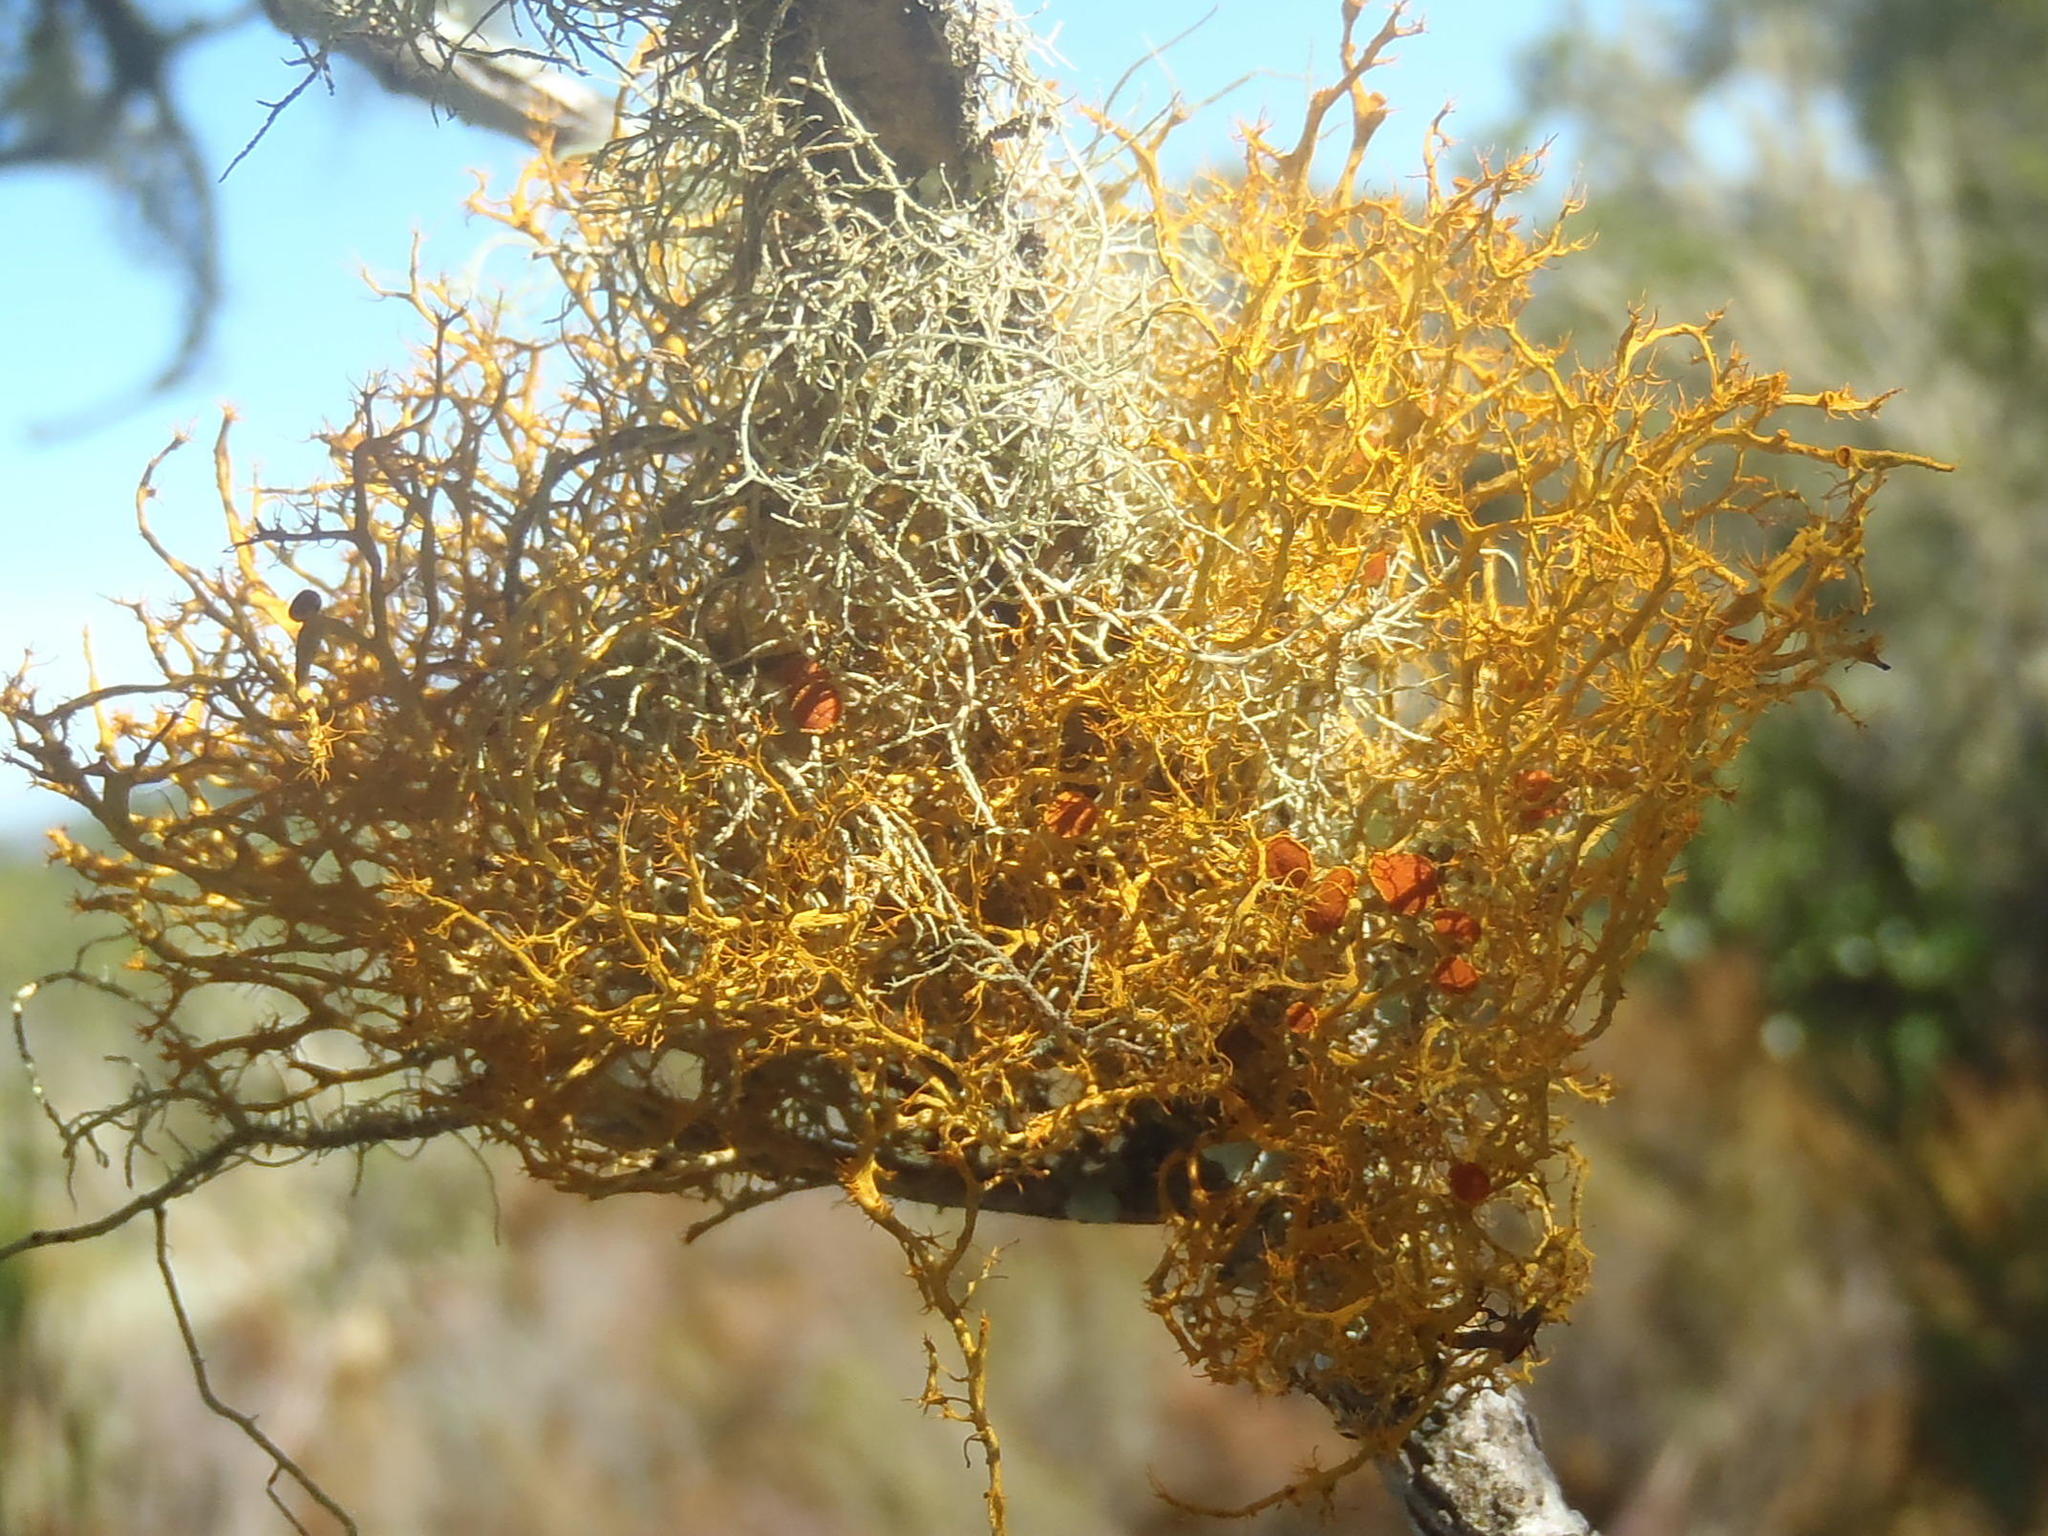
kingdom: Fungi
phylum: Ascomycota
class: Lecanoromycetes
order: Teloschistales
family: Teloschistaceae
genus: Teloschistes
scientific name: Teloschistes inflatus
